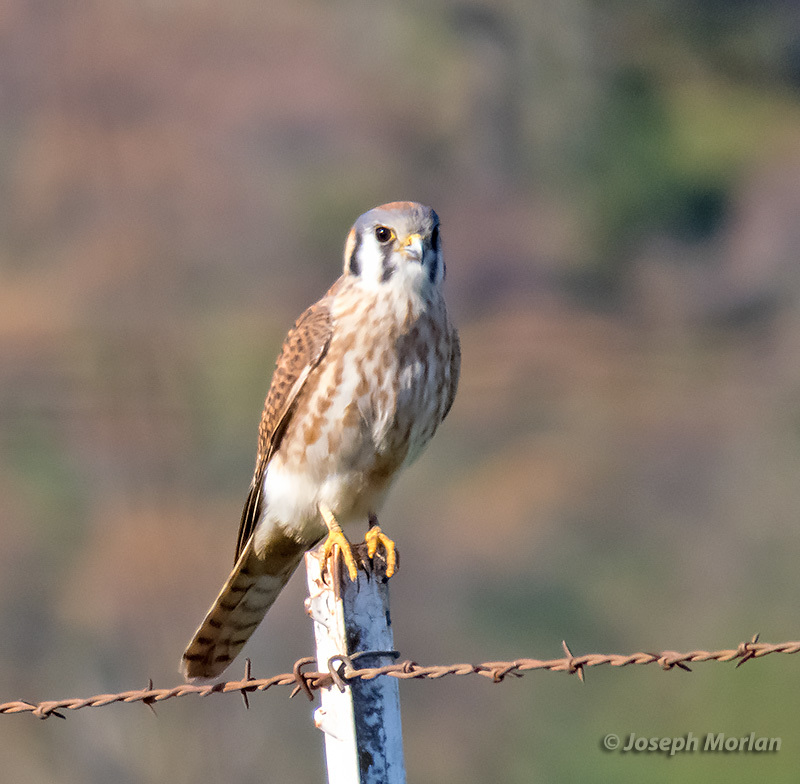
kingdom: Animalia
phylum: Chordata
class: Aves
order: Falconiformes
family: Falconidae
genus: Falco
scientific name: Falco sparverius
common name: American kestrel
